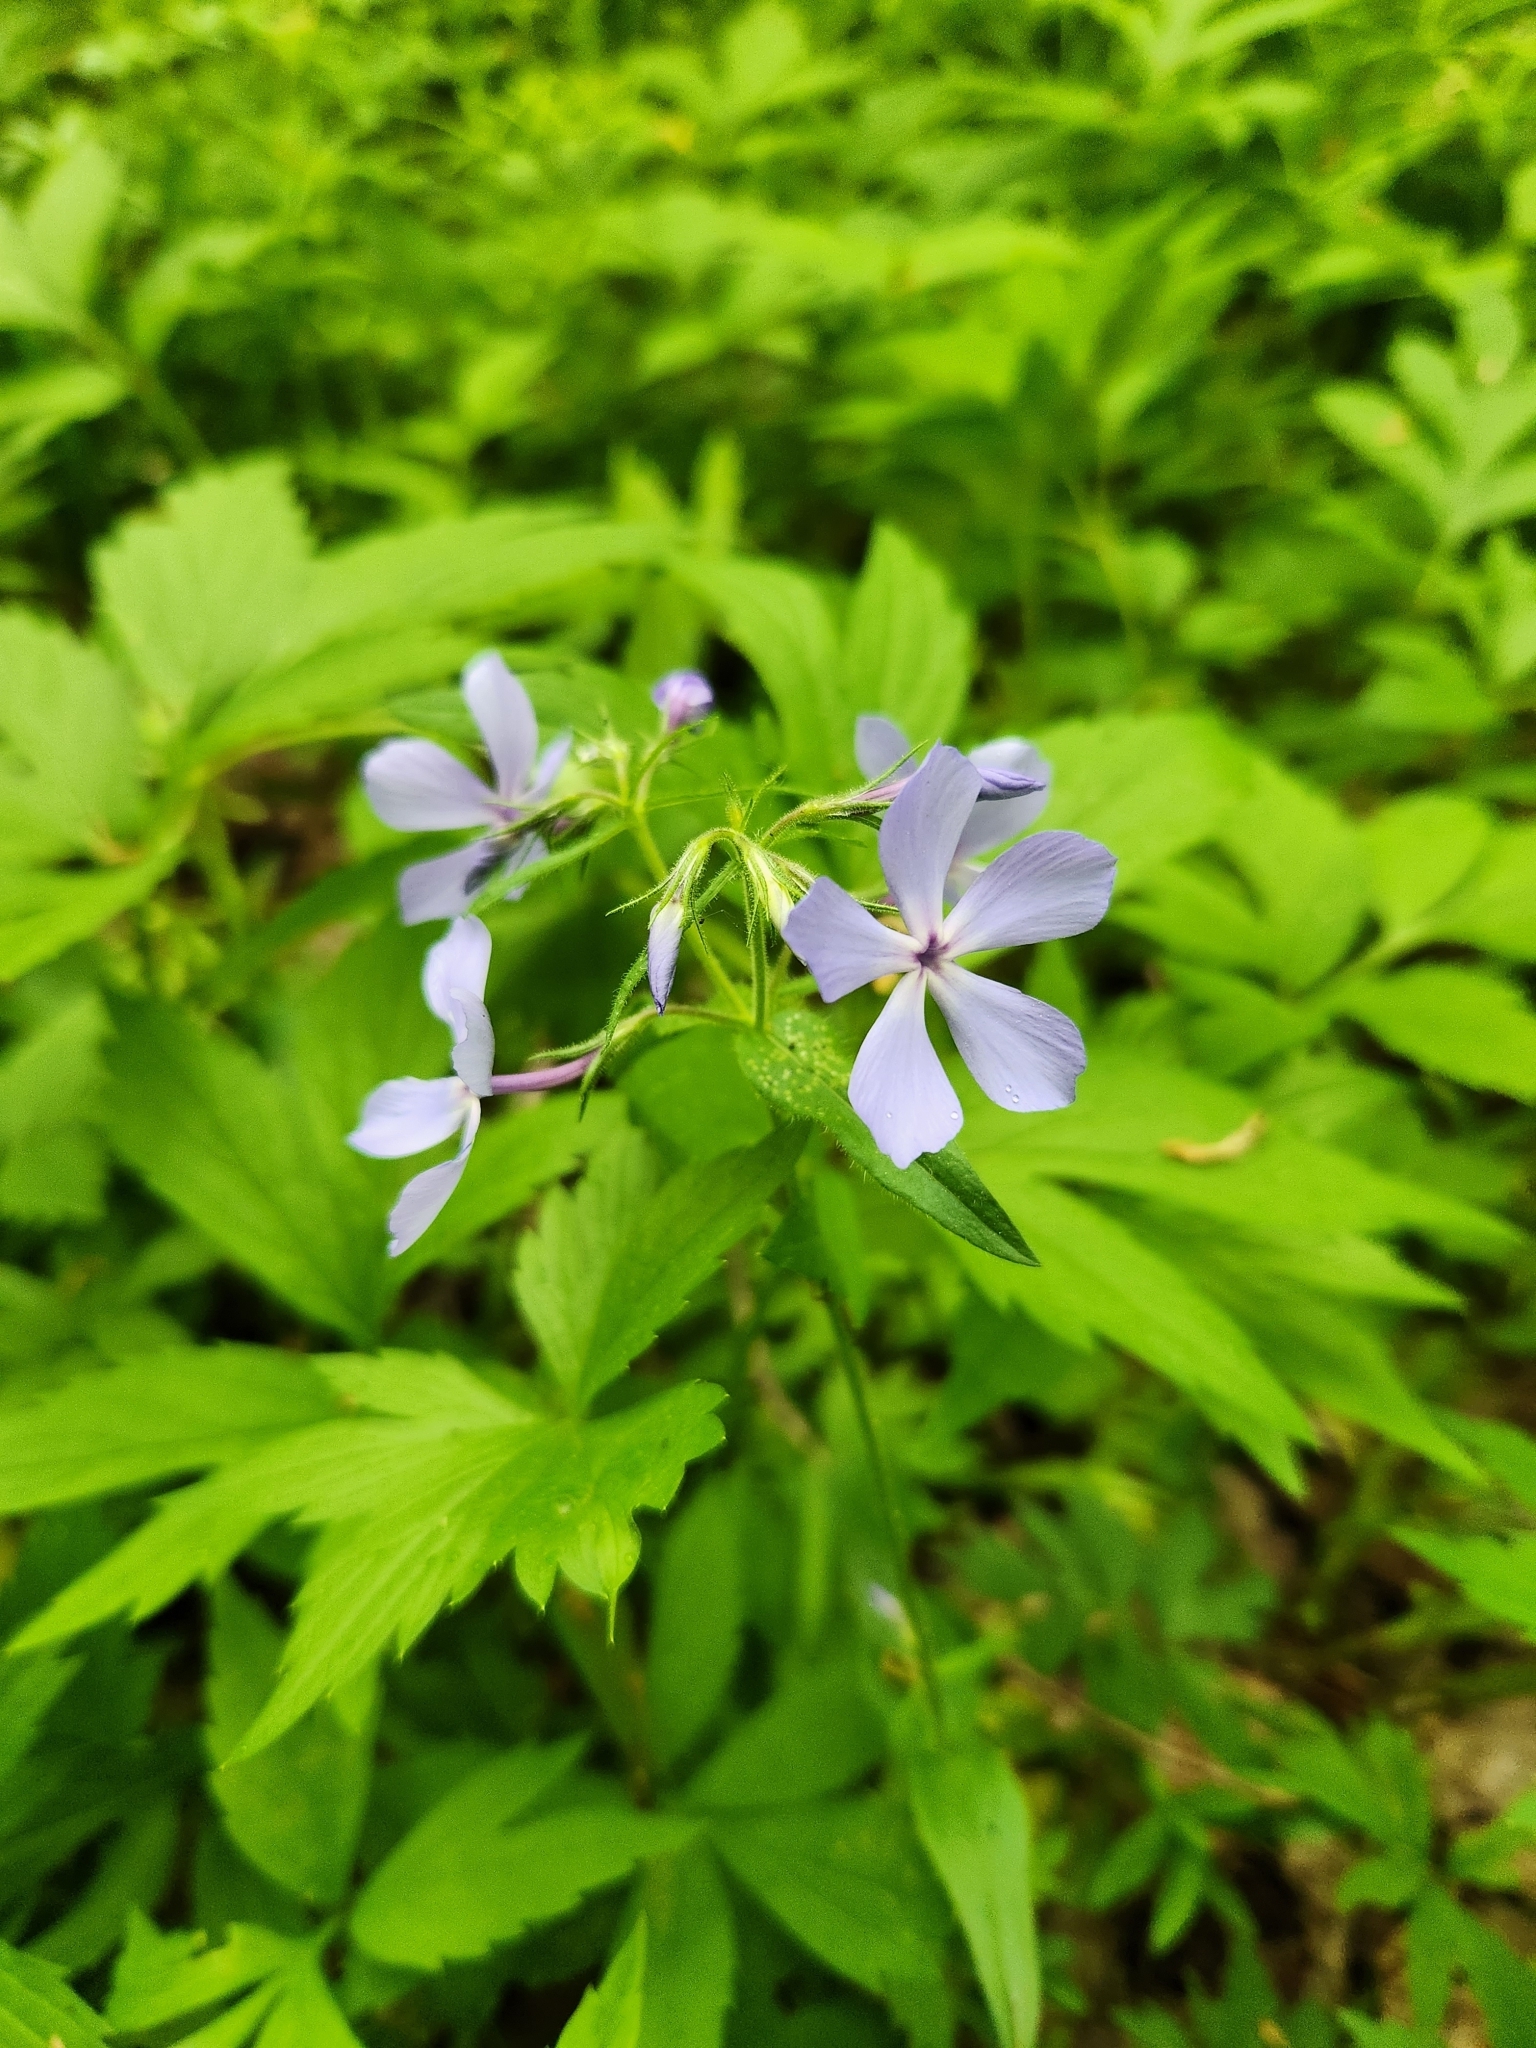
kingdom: Plantae
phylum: Tracheophyta
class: Magnoliopsida
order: Ericales
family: Polemoniaceae
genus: Phlox
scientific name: Phlox divaricata
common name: Blue phlox
